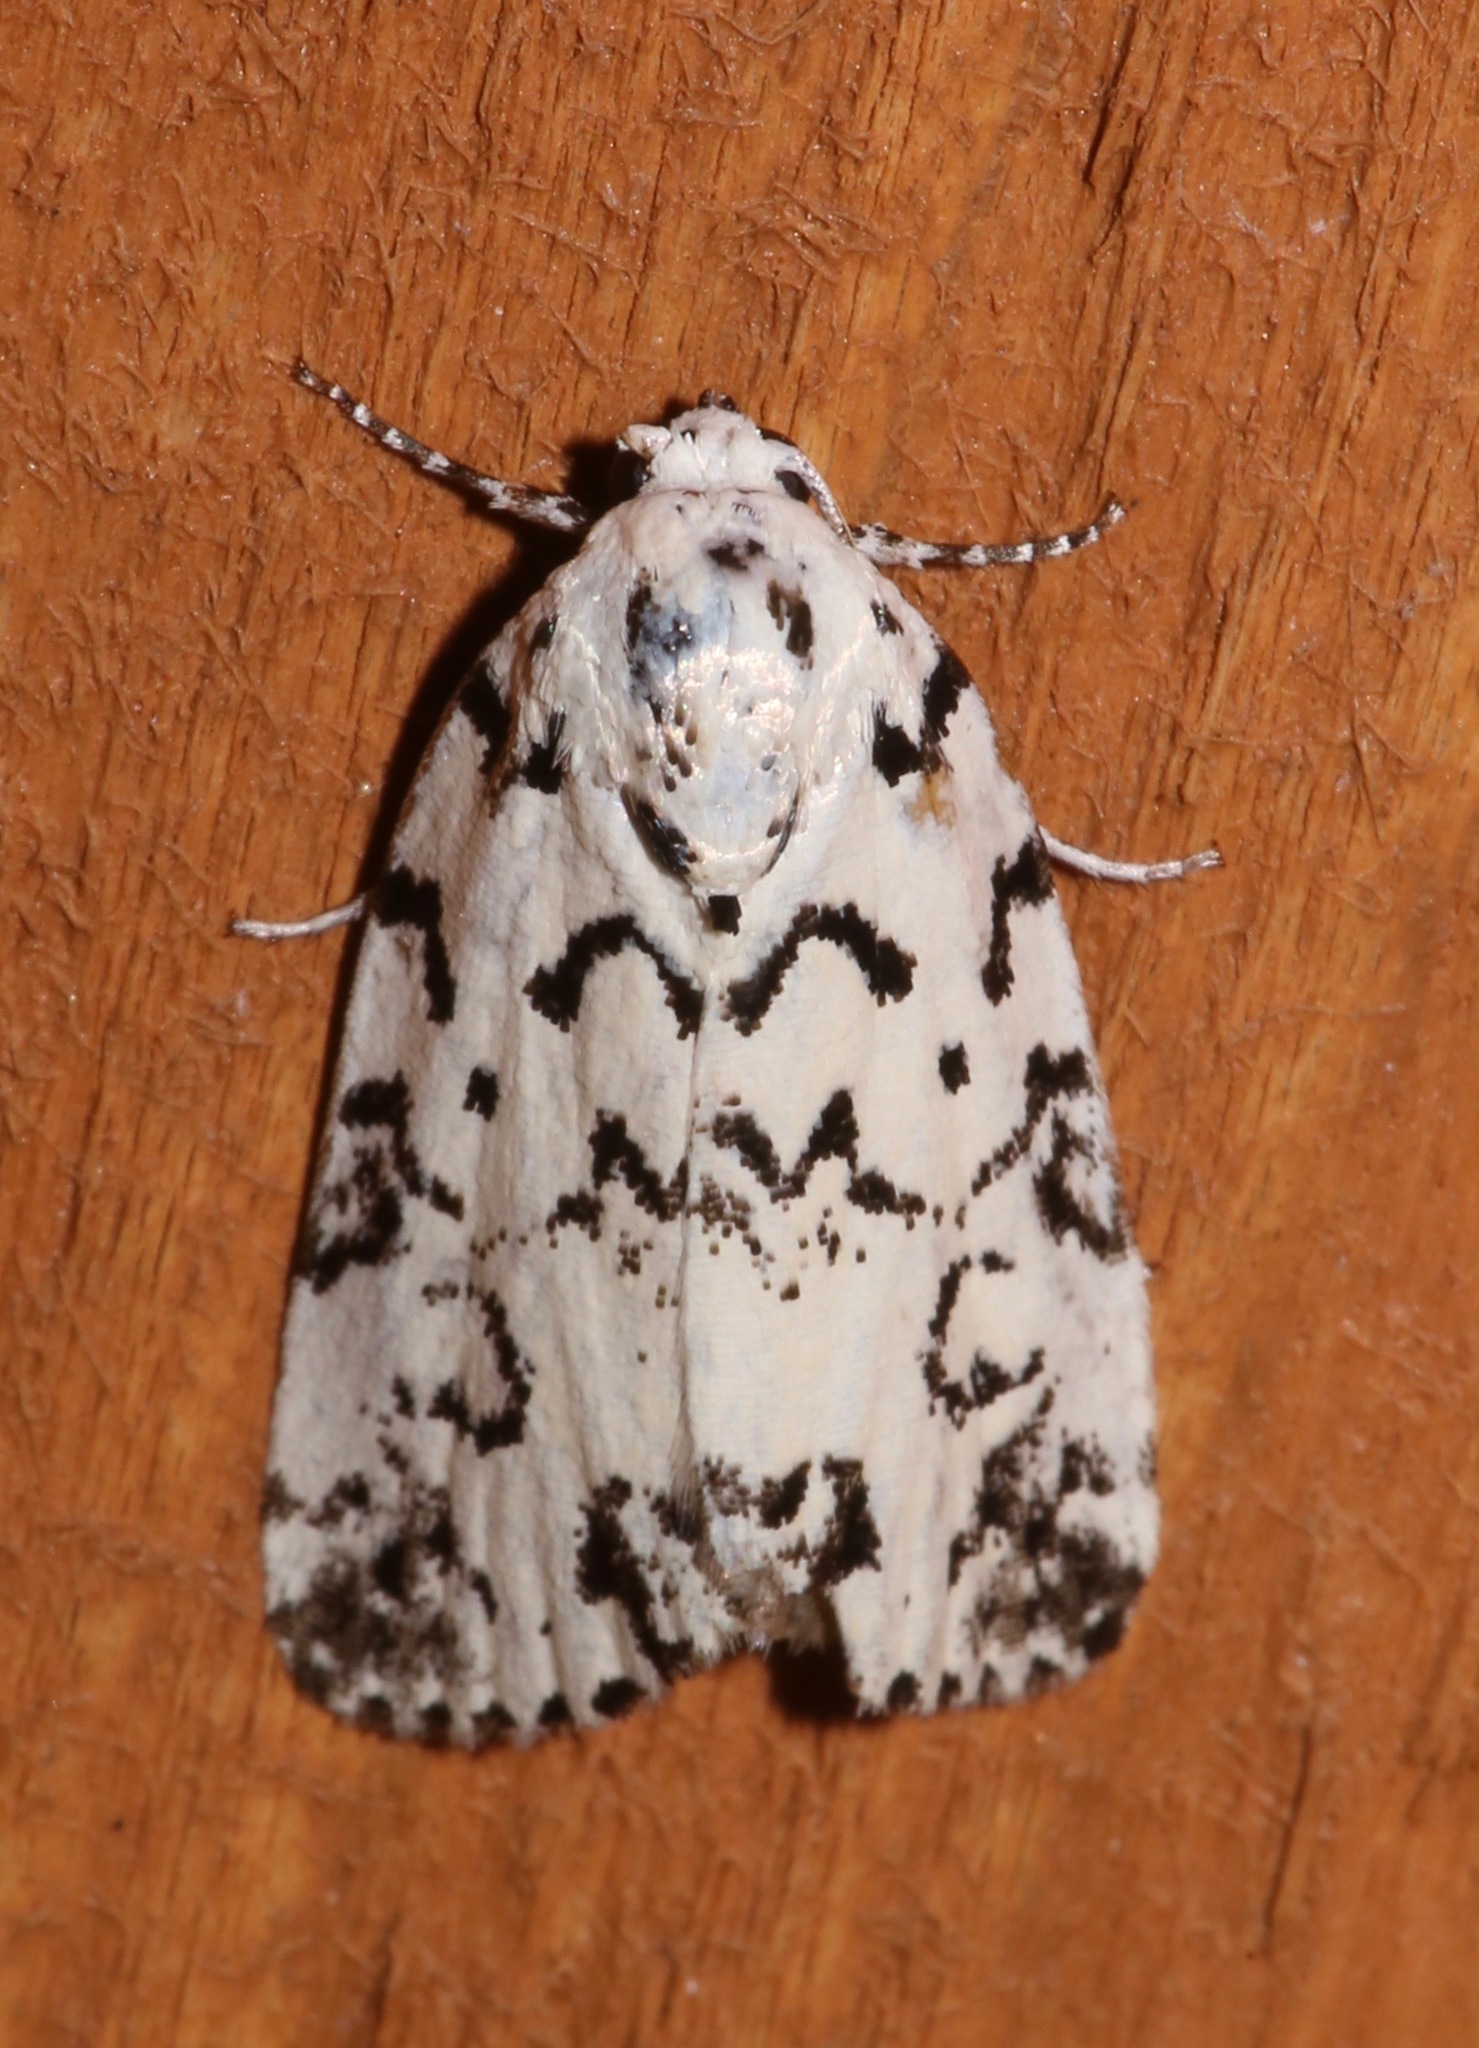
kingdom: Animalia
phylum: Arthropoda
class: Insecta
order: Lepidoptera
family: Noctuidae
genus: Polygrammate
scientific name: Polygrammate hebraeicum
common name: Hebrew moth
